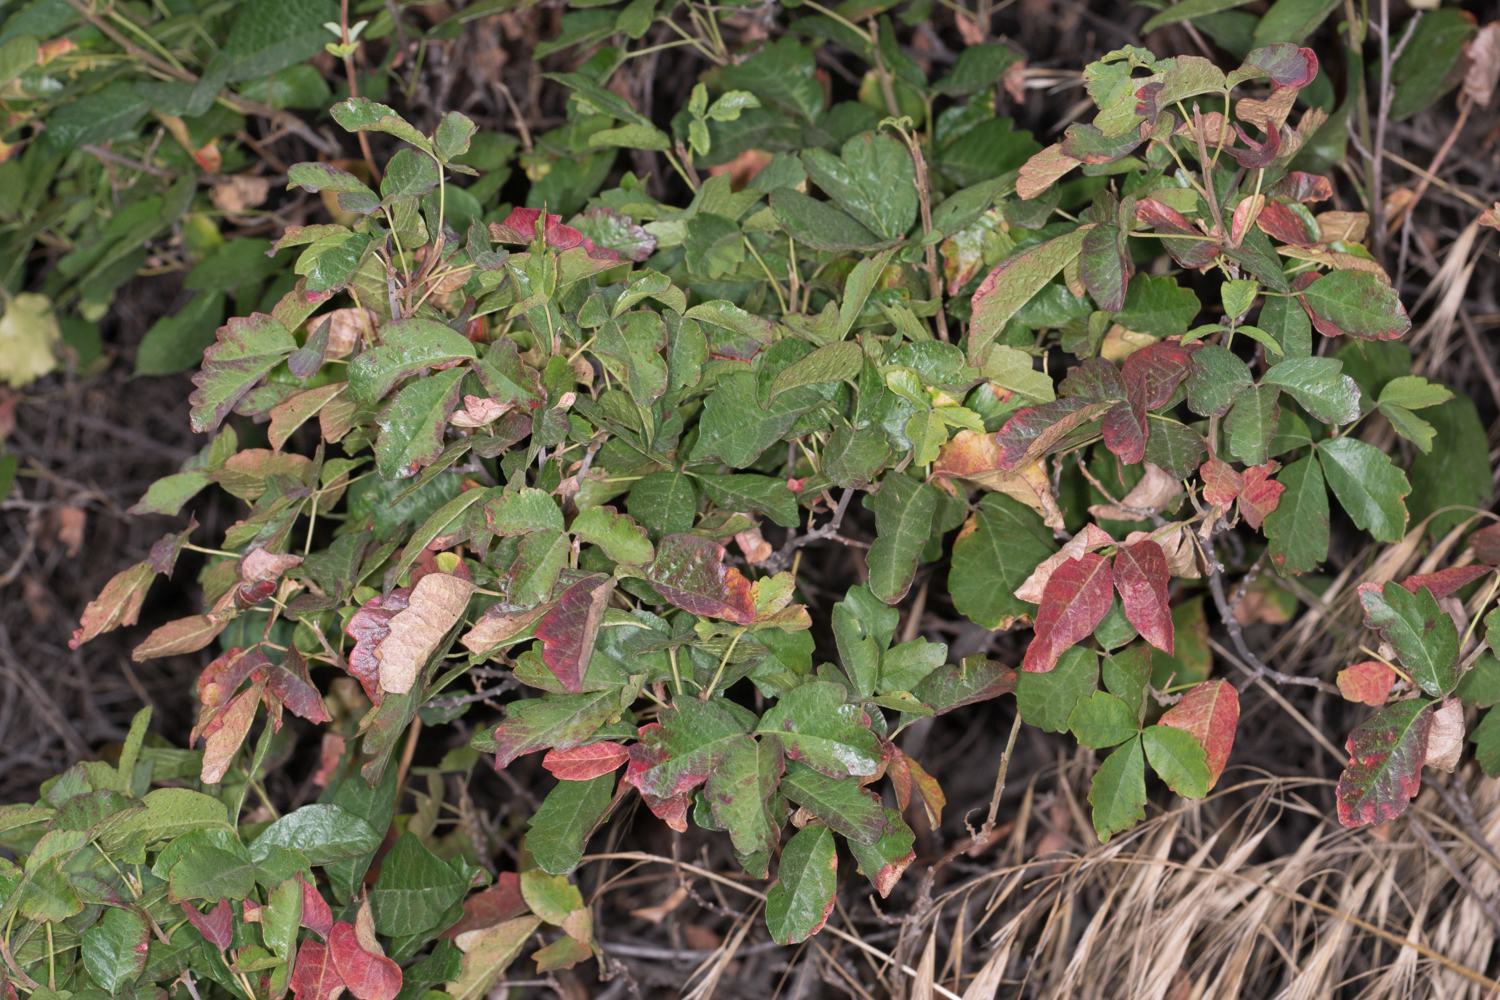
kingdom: Plantae
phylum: Tracheophyta
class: Magnoliopsida
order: Sapindales
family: Anacardiaceae
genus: Toxicodendron
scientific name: Toxicodendron diversilobum
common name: Pacific poison-oak
